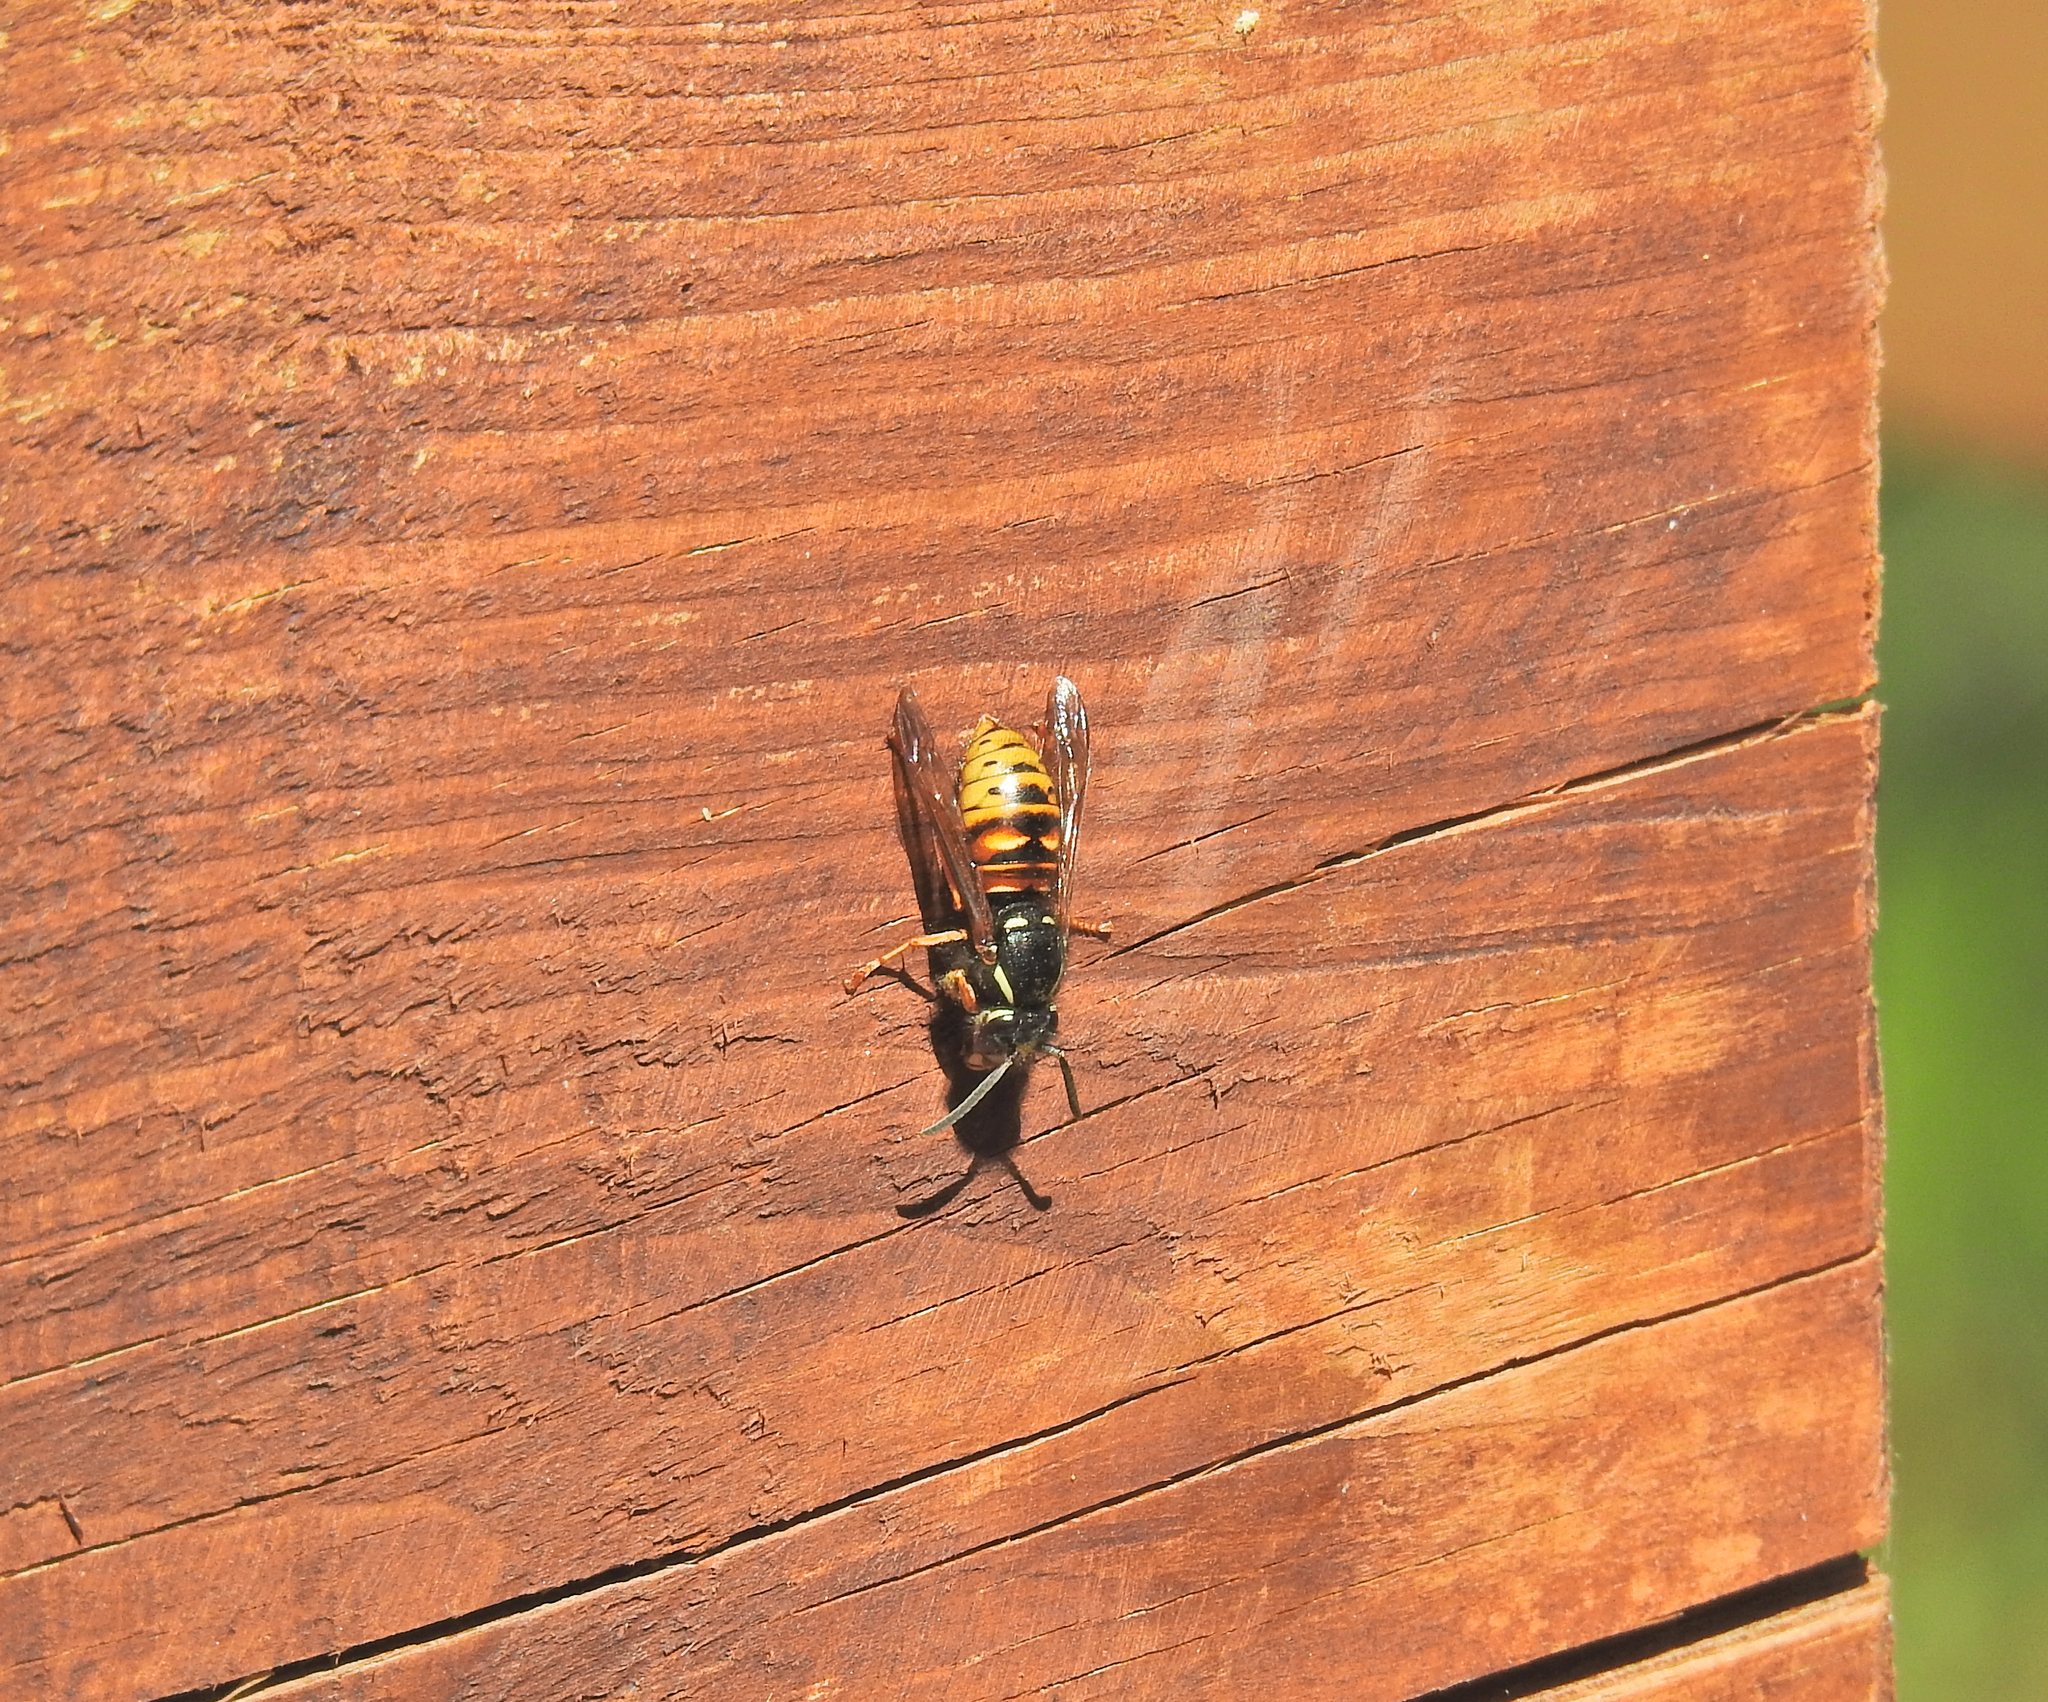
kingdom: Animalia
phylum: Arthropoda
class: Insecta
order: Hymenoptera
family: Vespidae
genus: Vespula
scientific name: Vespula rufa
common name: Red wasp
